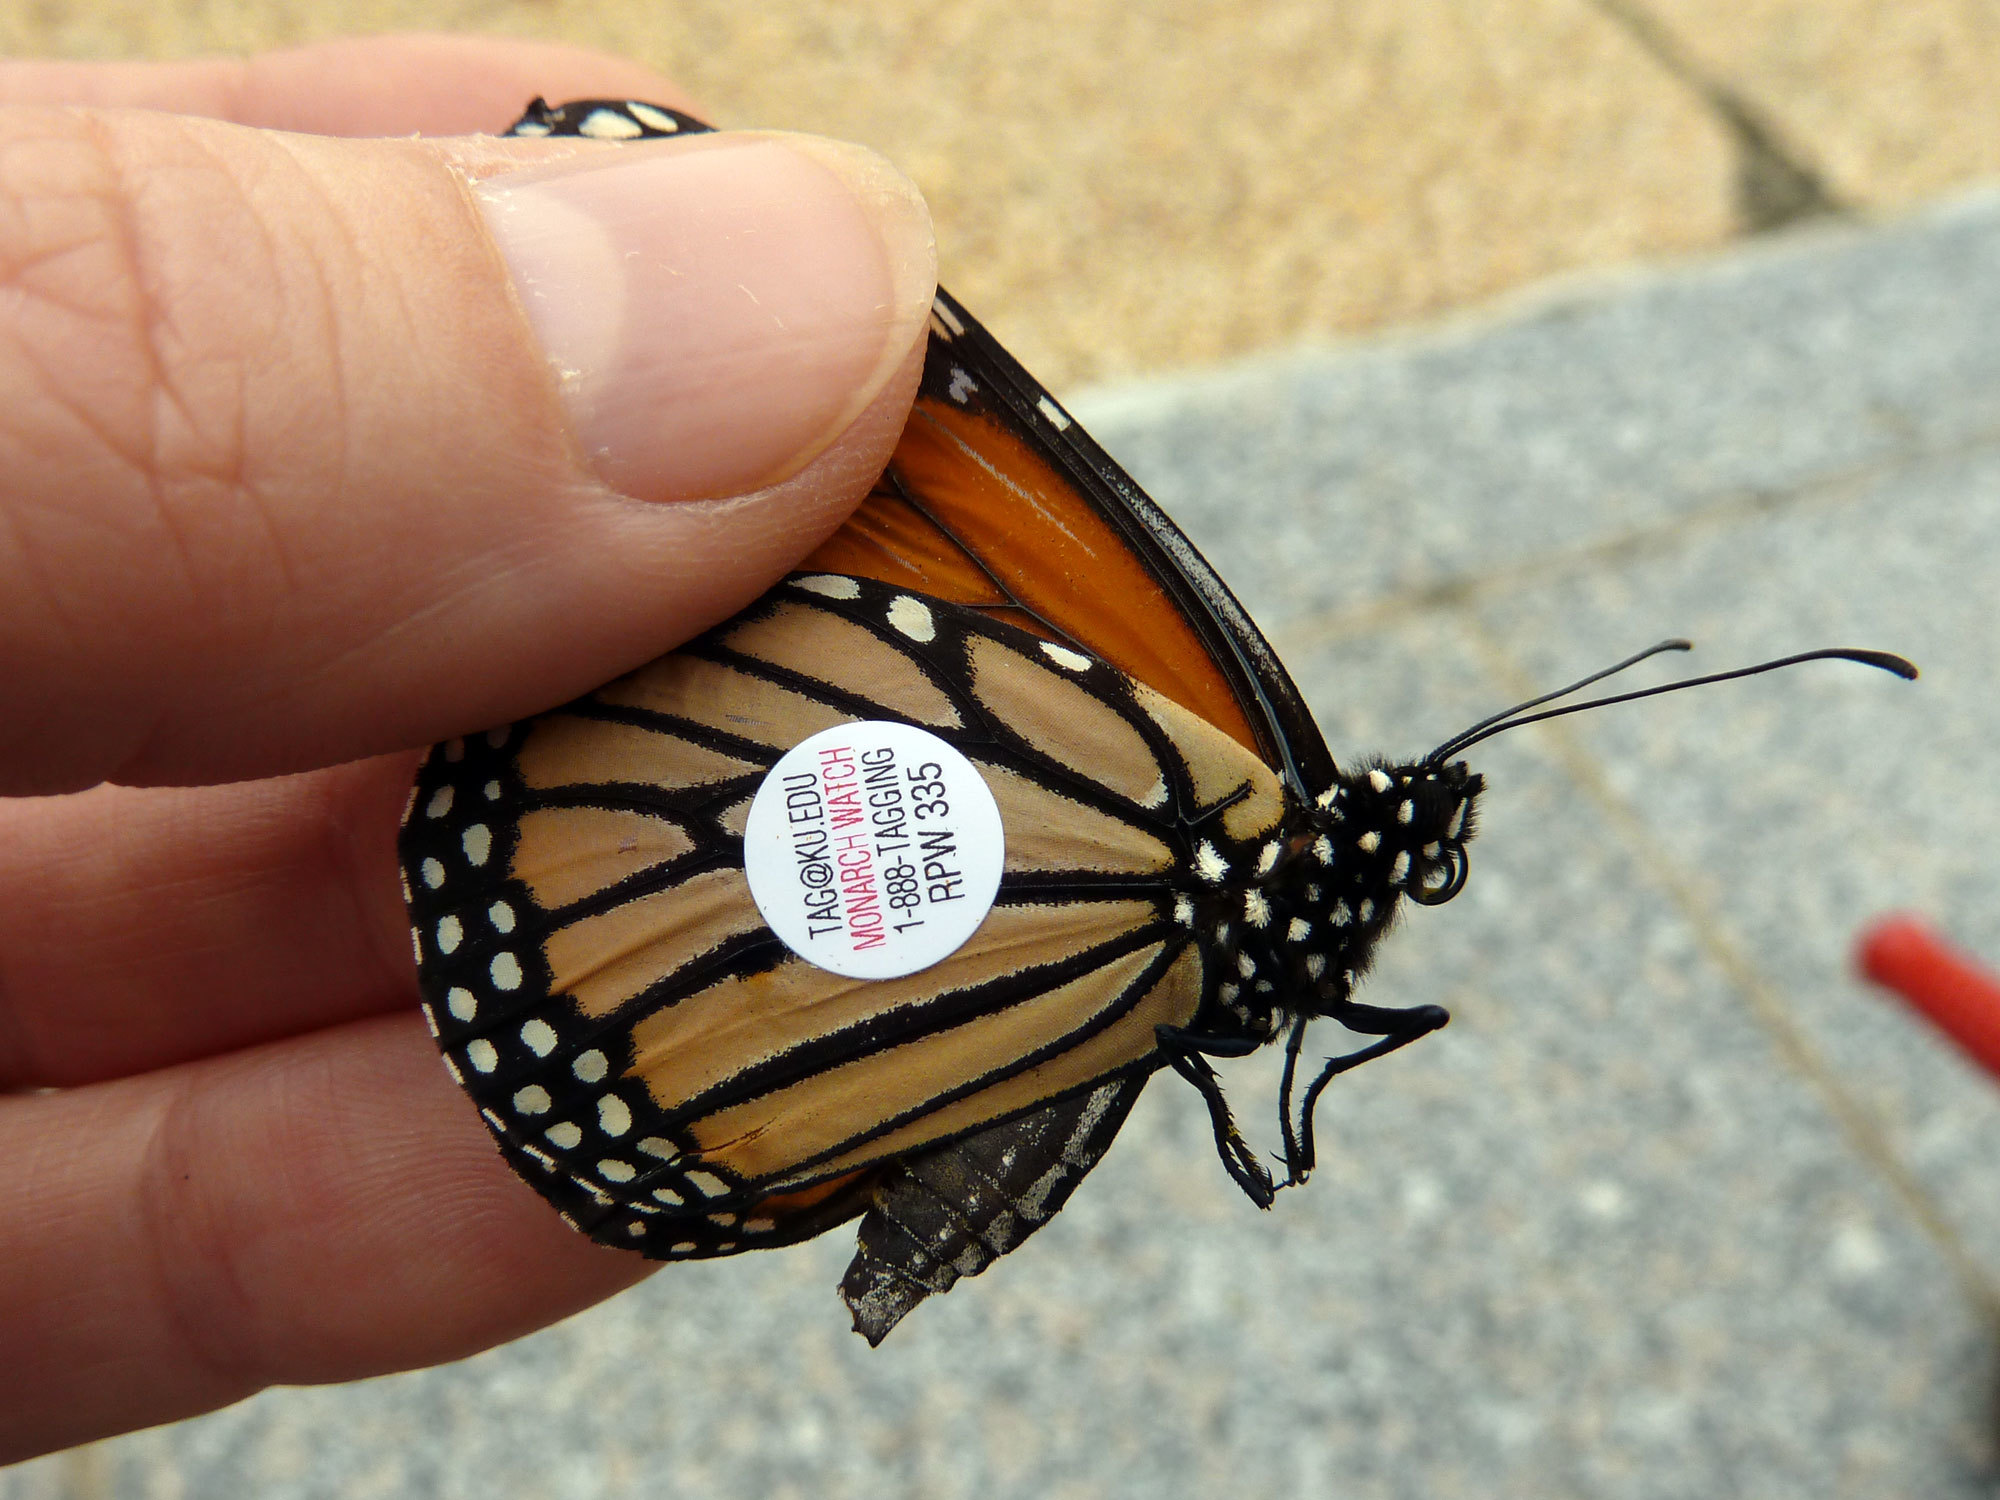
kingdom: Animalia
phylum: Arthropoda
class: Insecta
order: Lepidoptera
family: Nymphalidae
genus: Danaus
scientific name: Danaus plexippus
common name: Monarch
